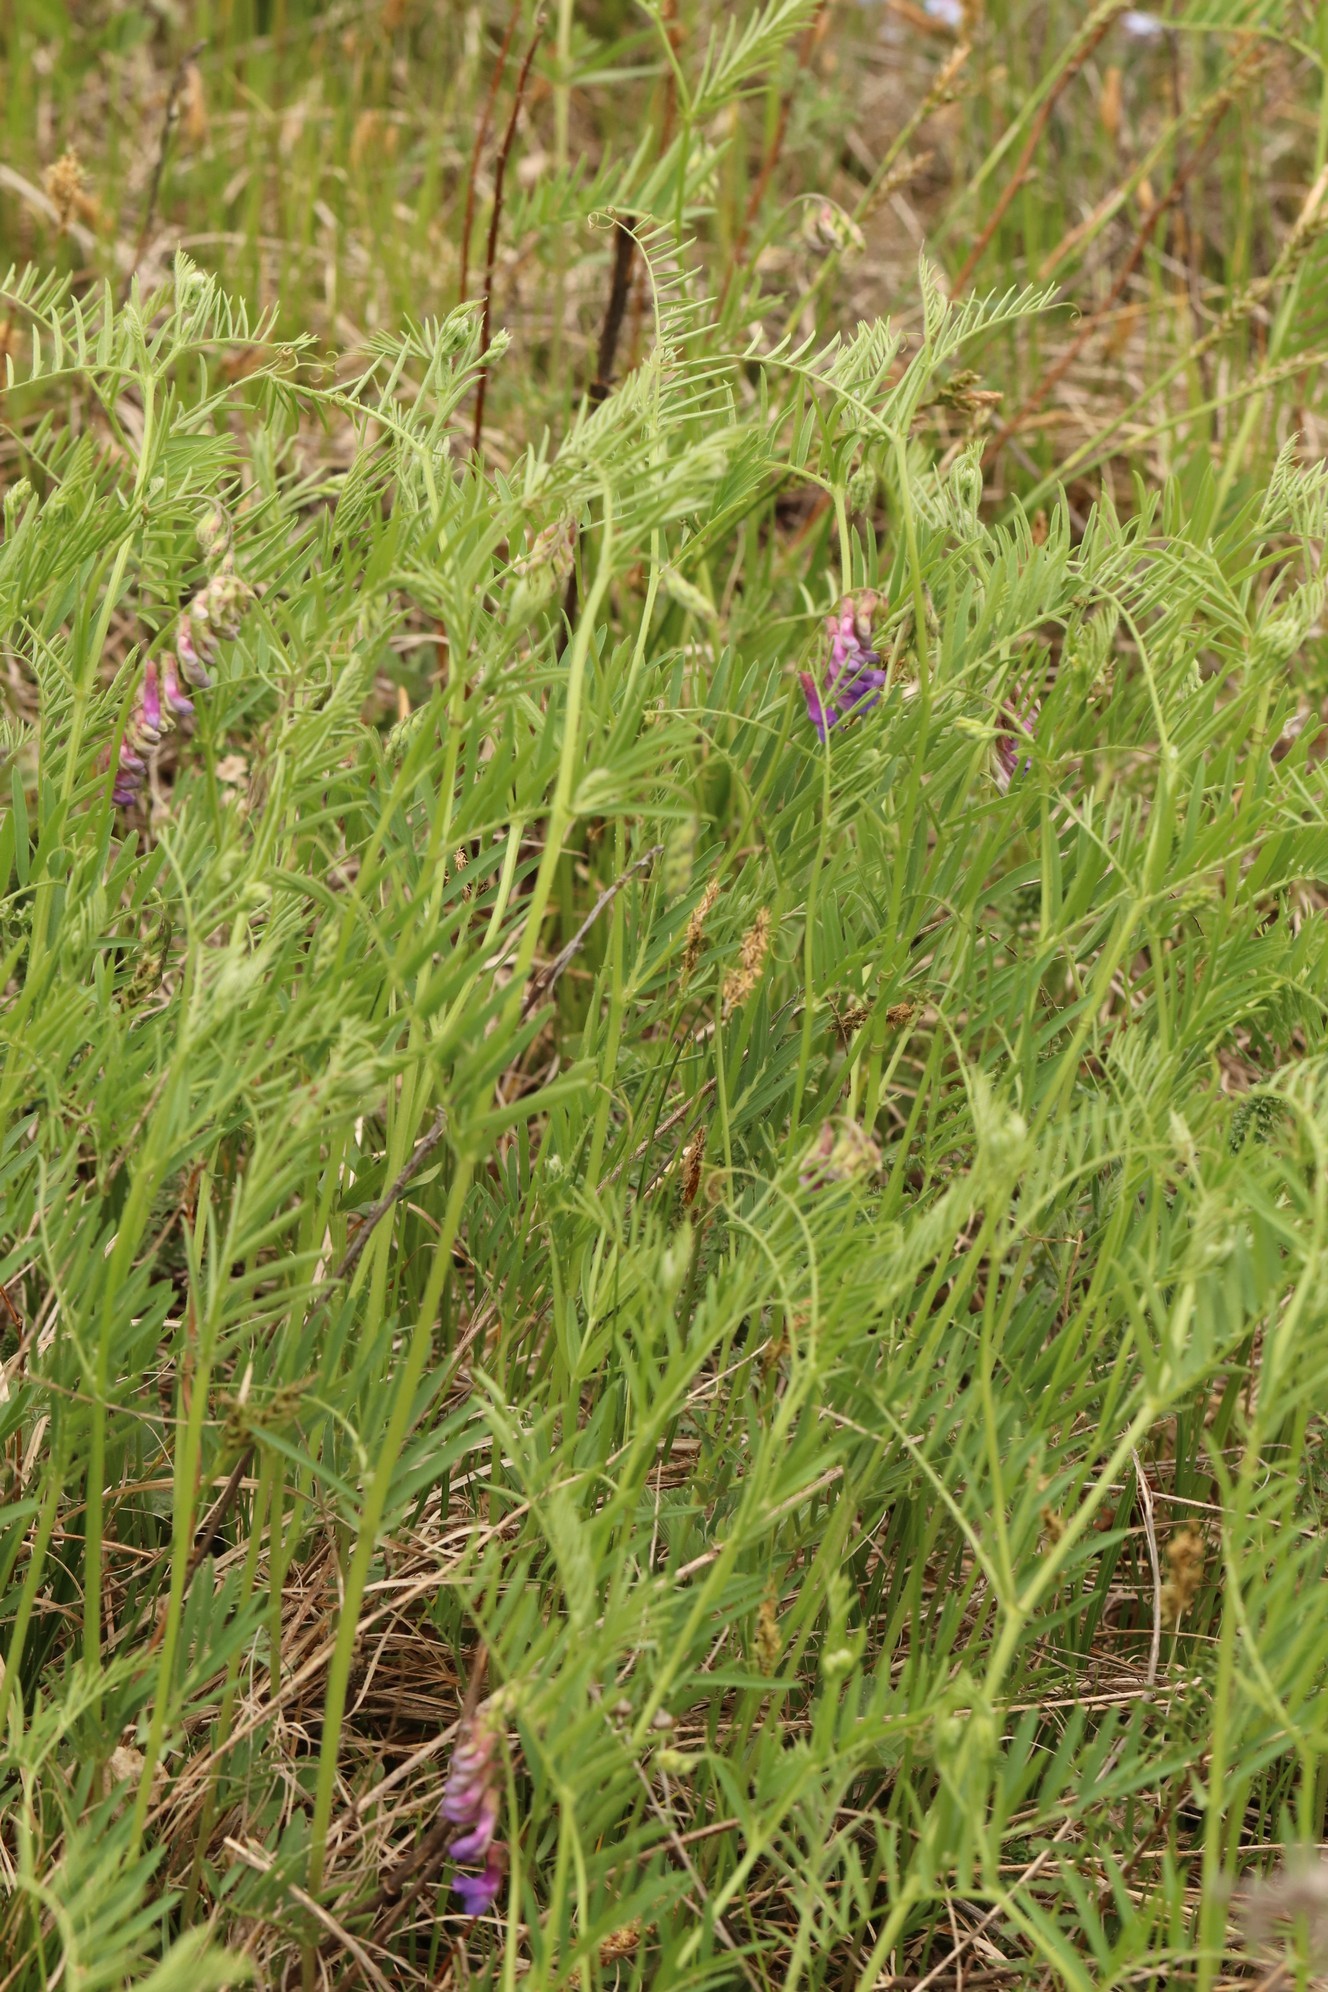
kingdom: Plantae
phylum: Tracheophyta
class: Magnoliopsida
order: Fabales
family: Fabaceae
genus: Vicia
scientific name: Vicia megalotropis
